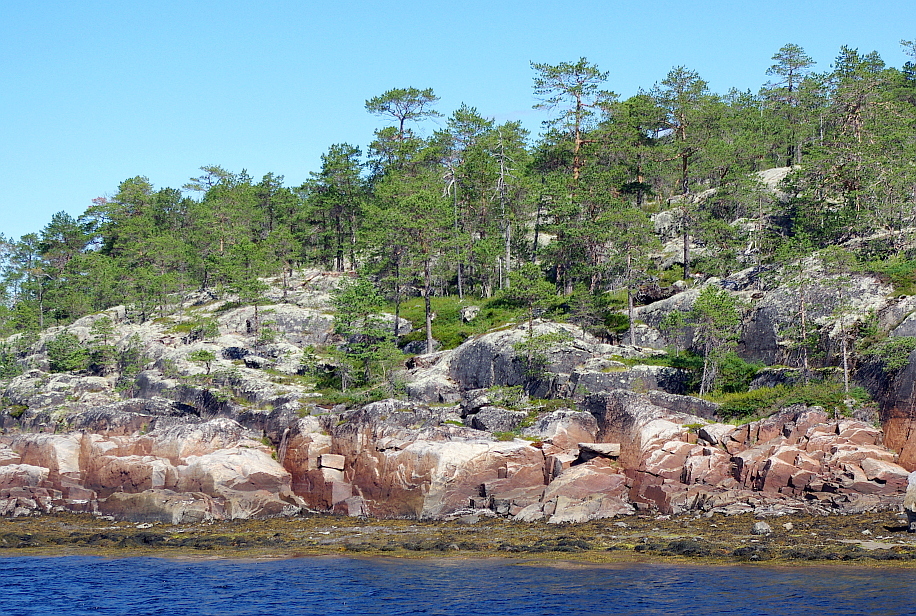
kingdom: Plantae
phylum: Tracheophyta
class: Pinopsida
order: Pinales
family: Pinaceae
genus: Pinus
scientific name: Pinus sylvestris
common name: Scots pine
